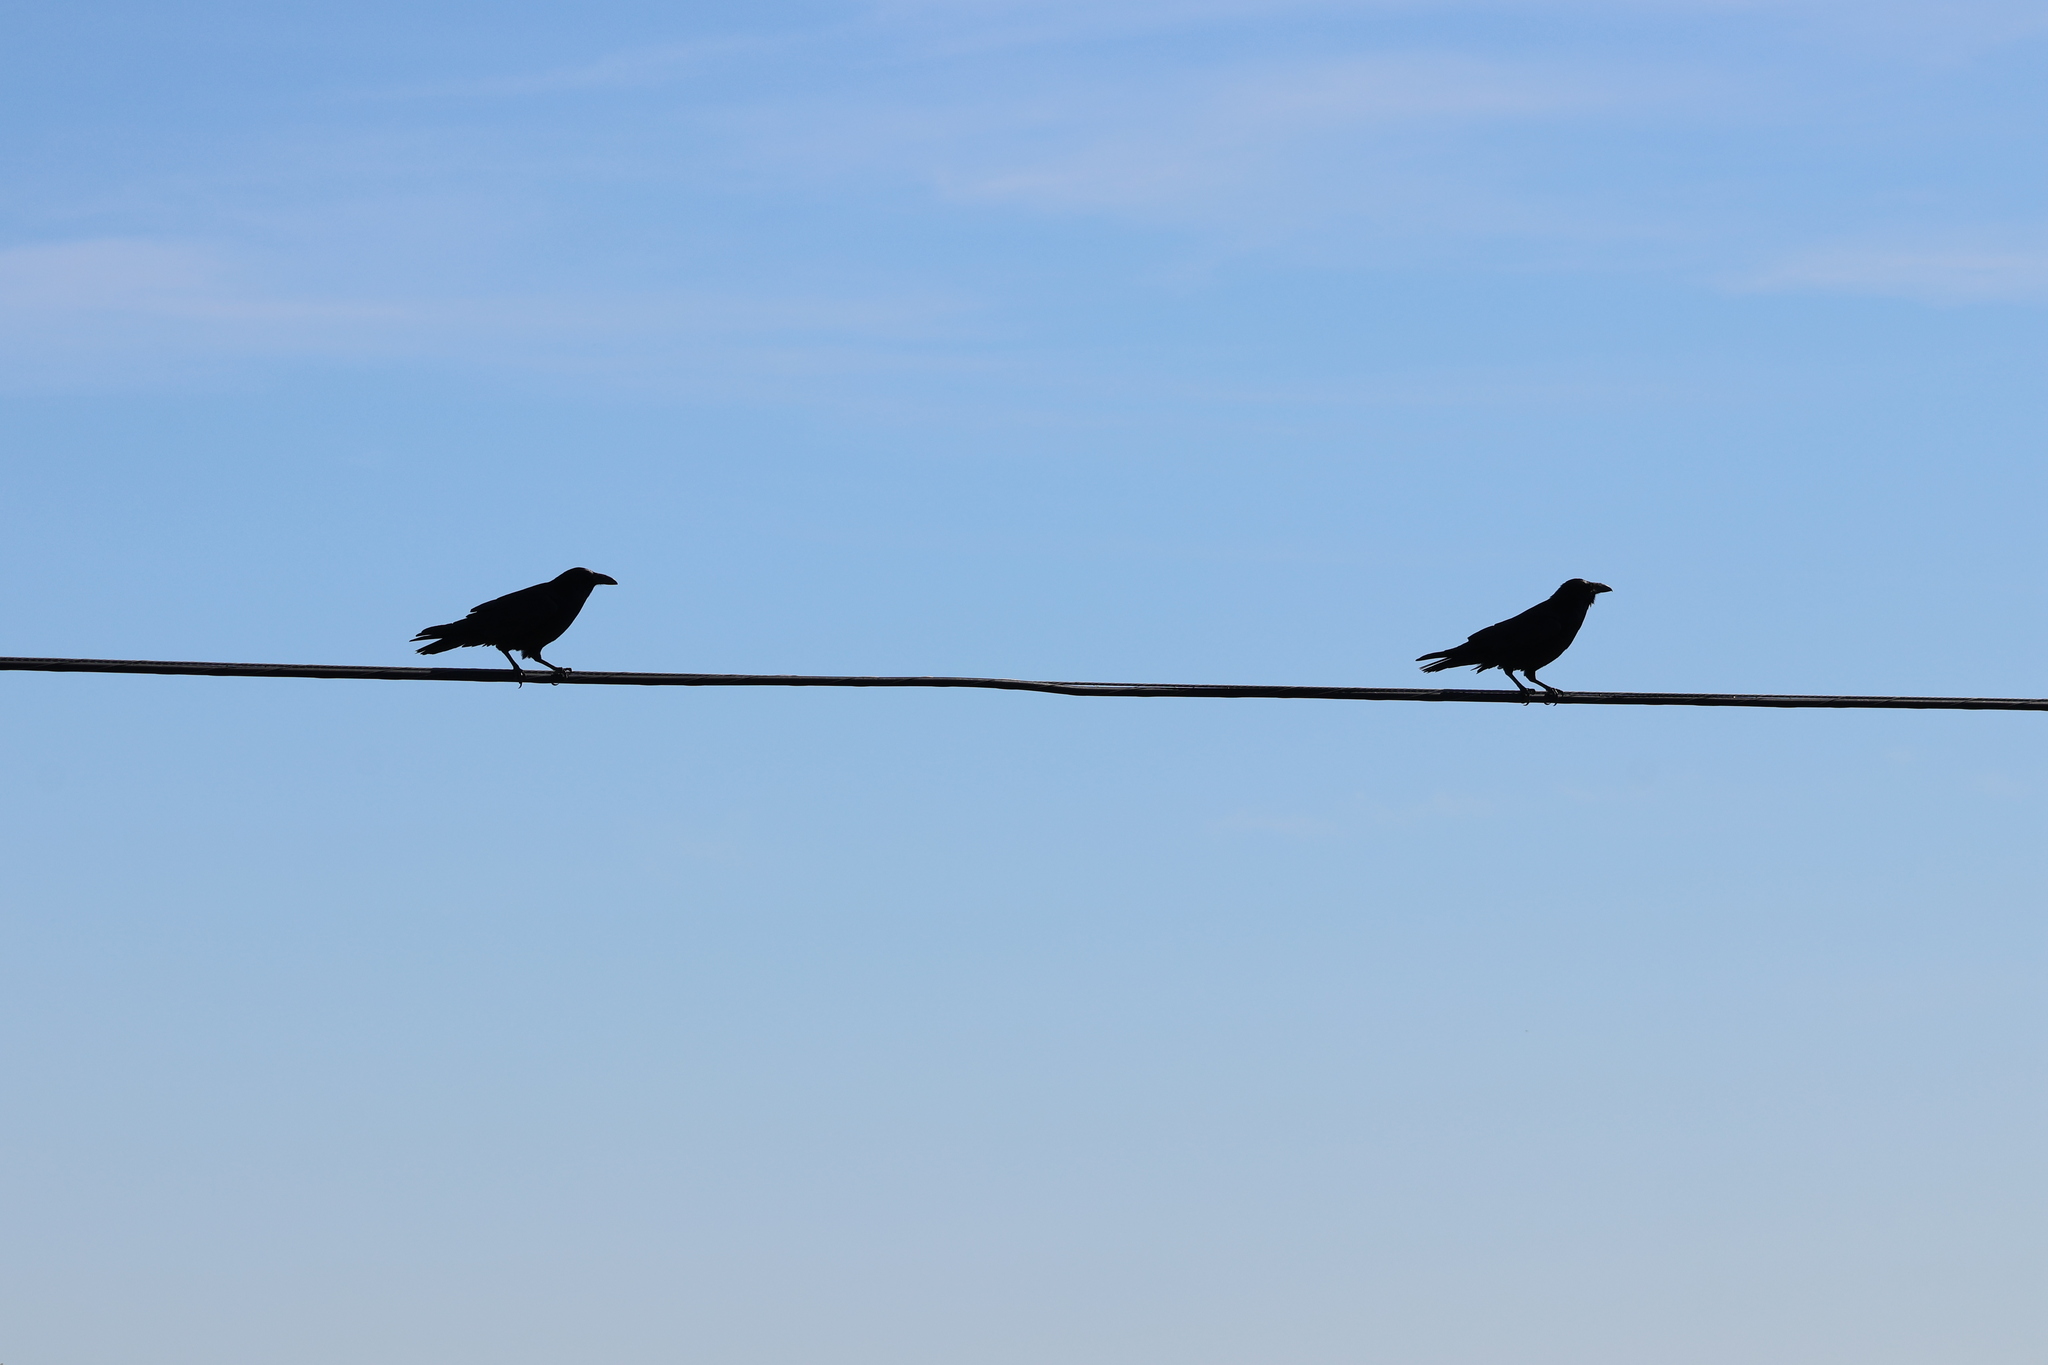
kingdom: Animalia
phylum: Chordata
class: Aves
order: Passeriformes
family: Corvidae
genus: Corvus
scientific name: Corvus corax
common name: Common raven
